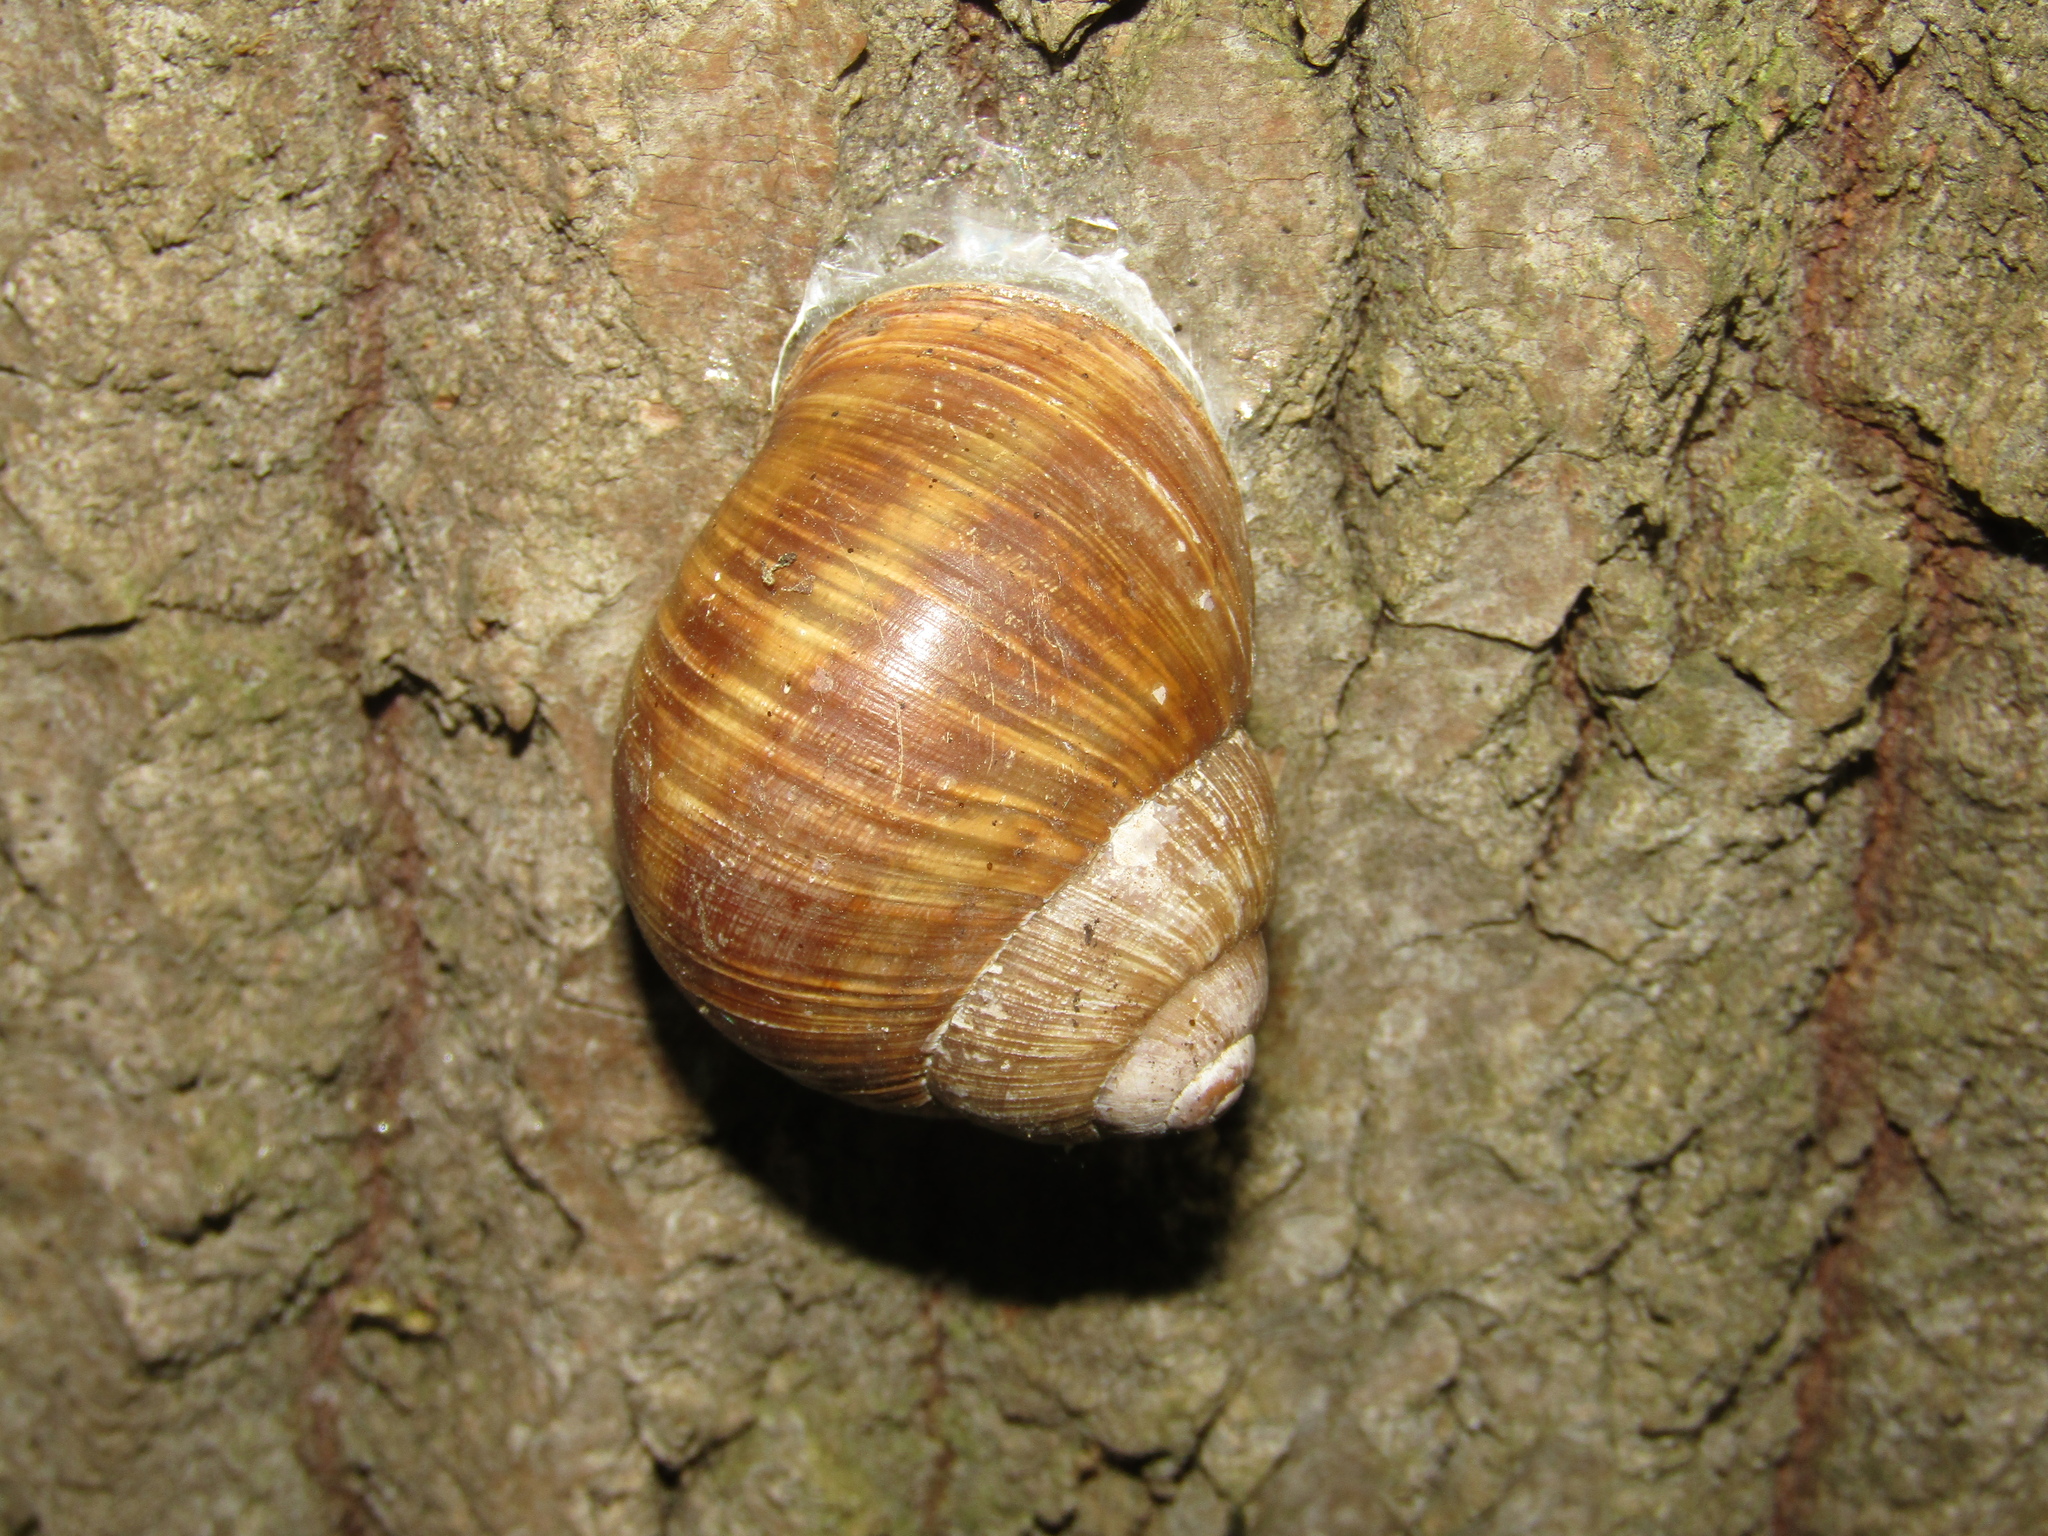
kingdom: Animalia
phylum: Mollusca
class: Gastropoda
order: Stylommatophora
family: Helicidae
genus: Helix
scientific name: Helix pomatia
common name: Roman snail
